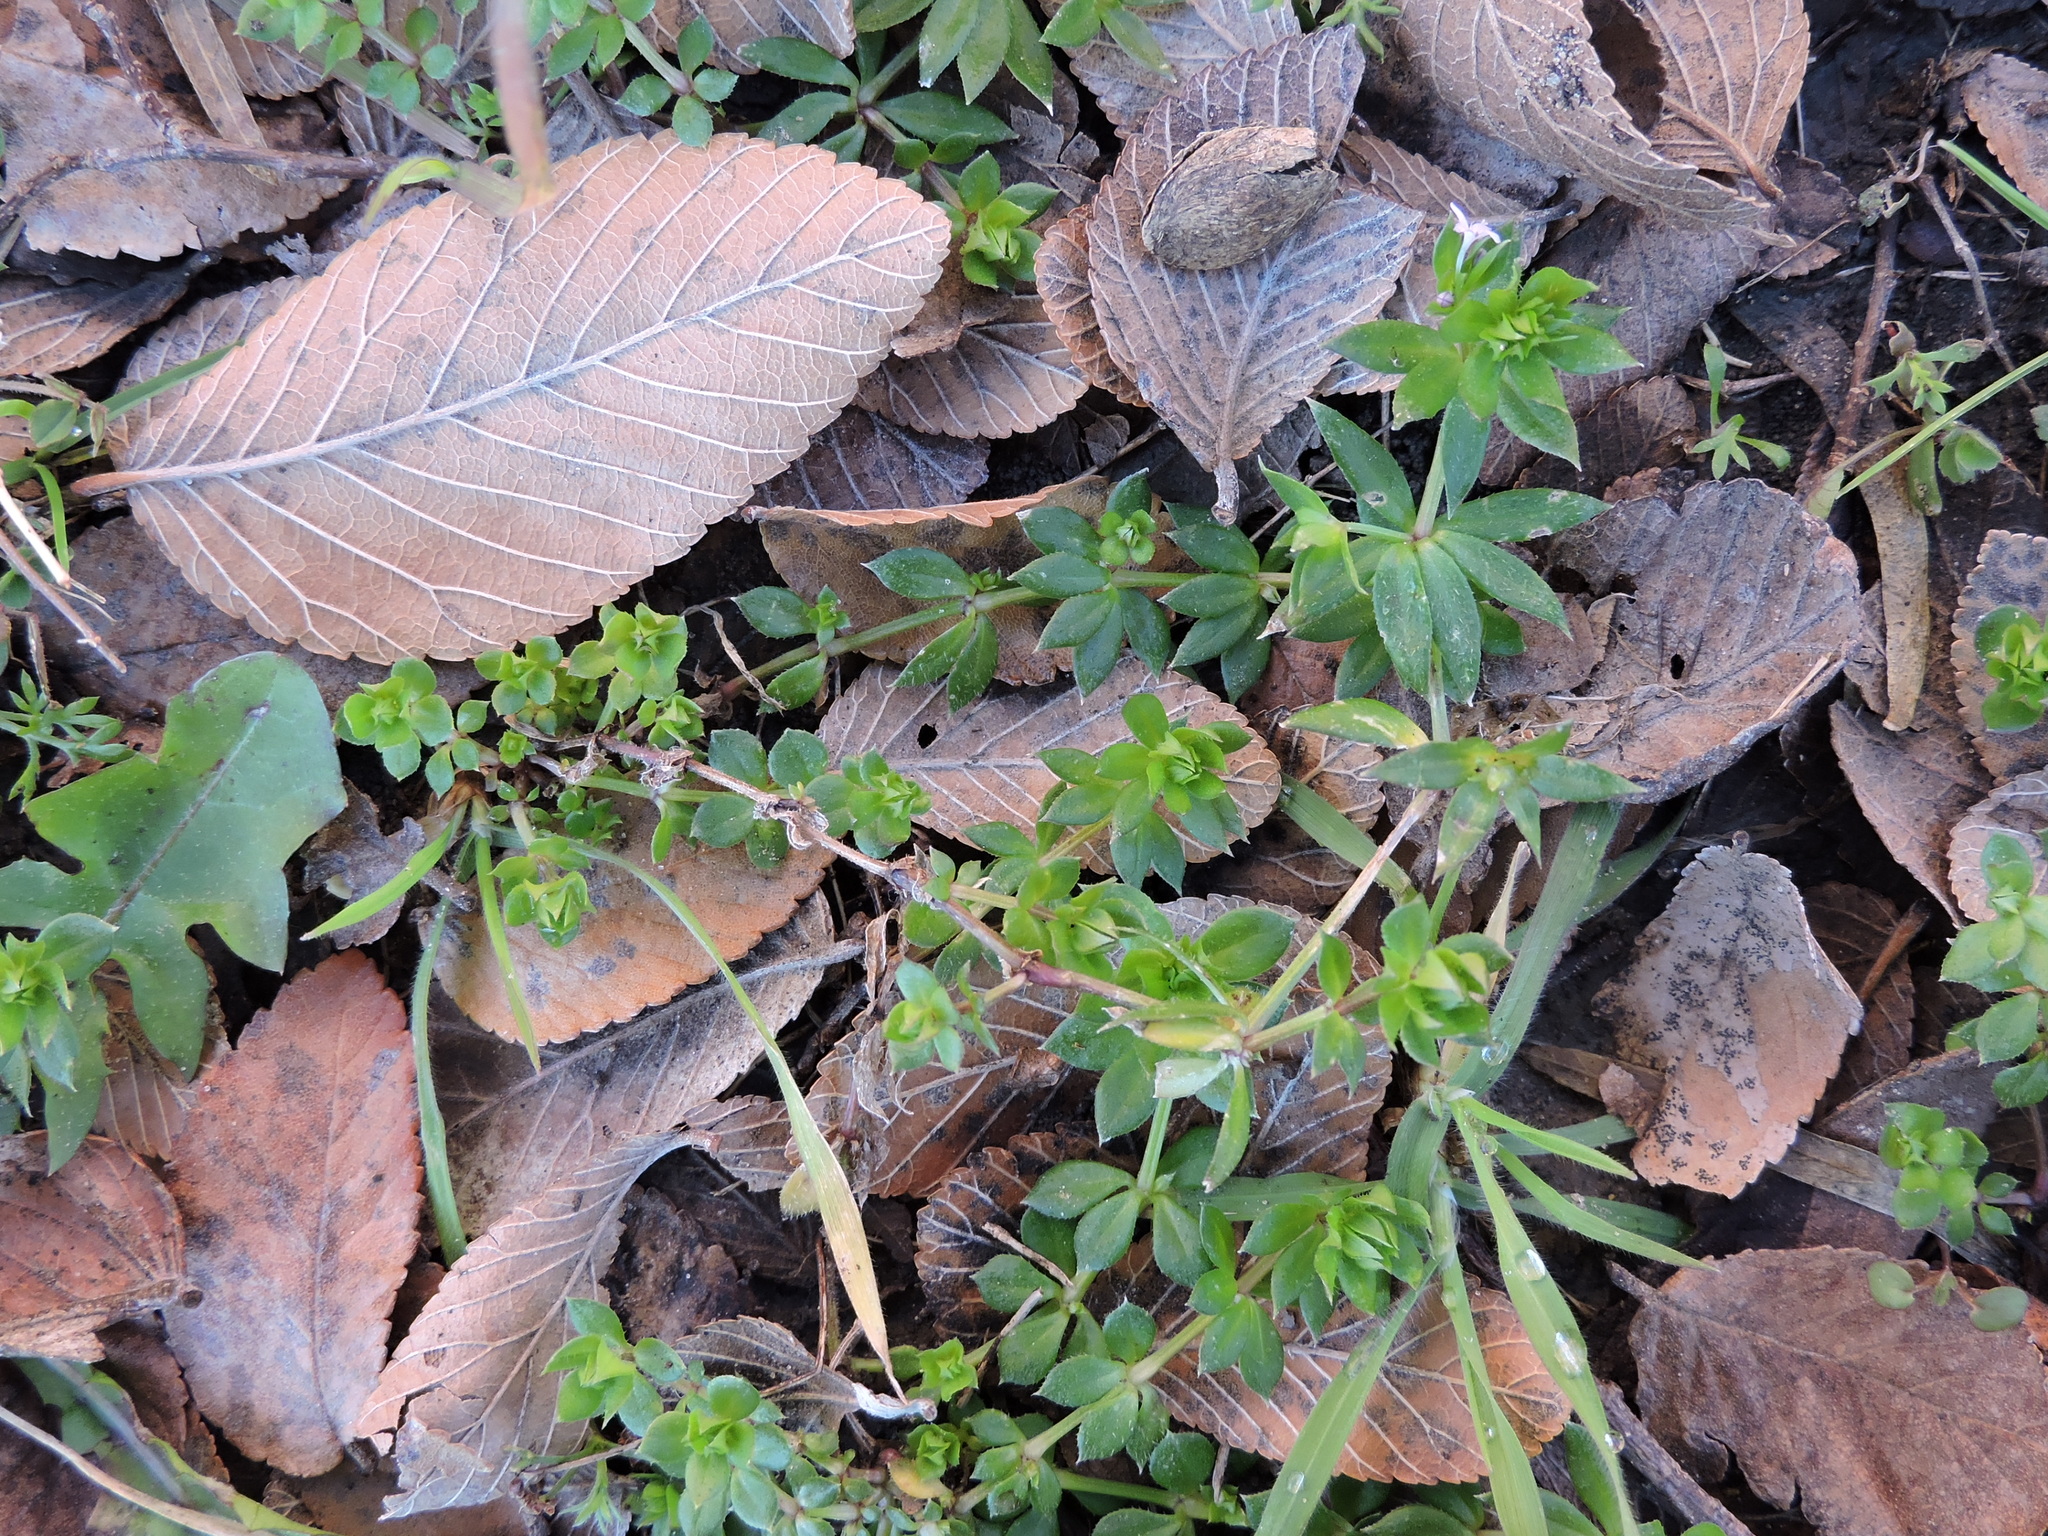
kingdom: Plantae
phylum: Tracheophyta
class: Magnoliopsida
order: Gentianales
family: Rubiaceae
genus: Sherardia
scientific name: Sherardia arvensis
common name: Field madder
